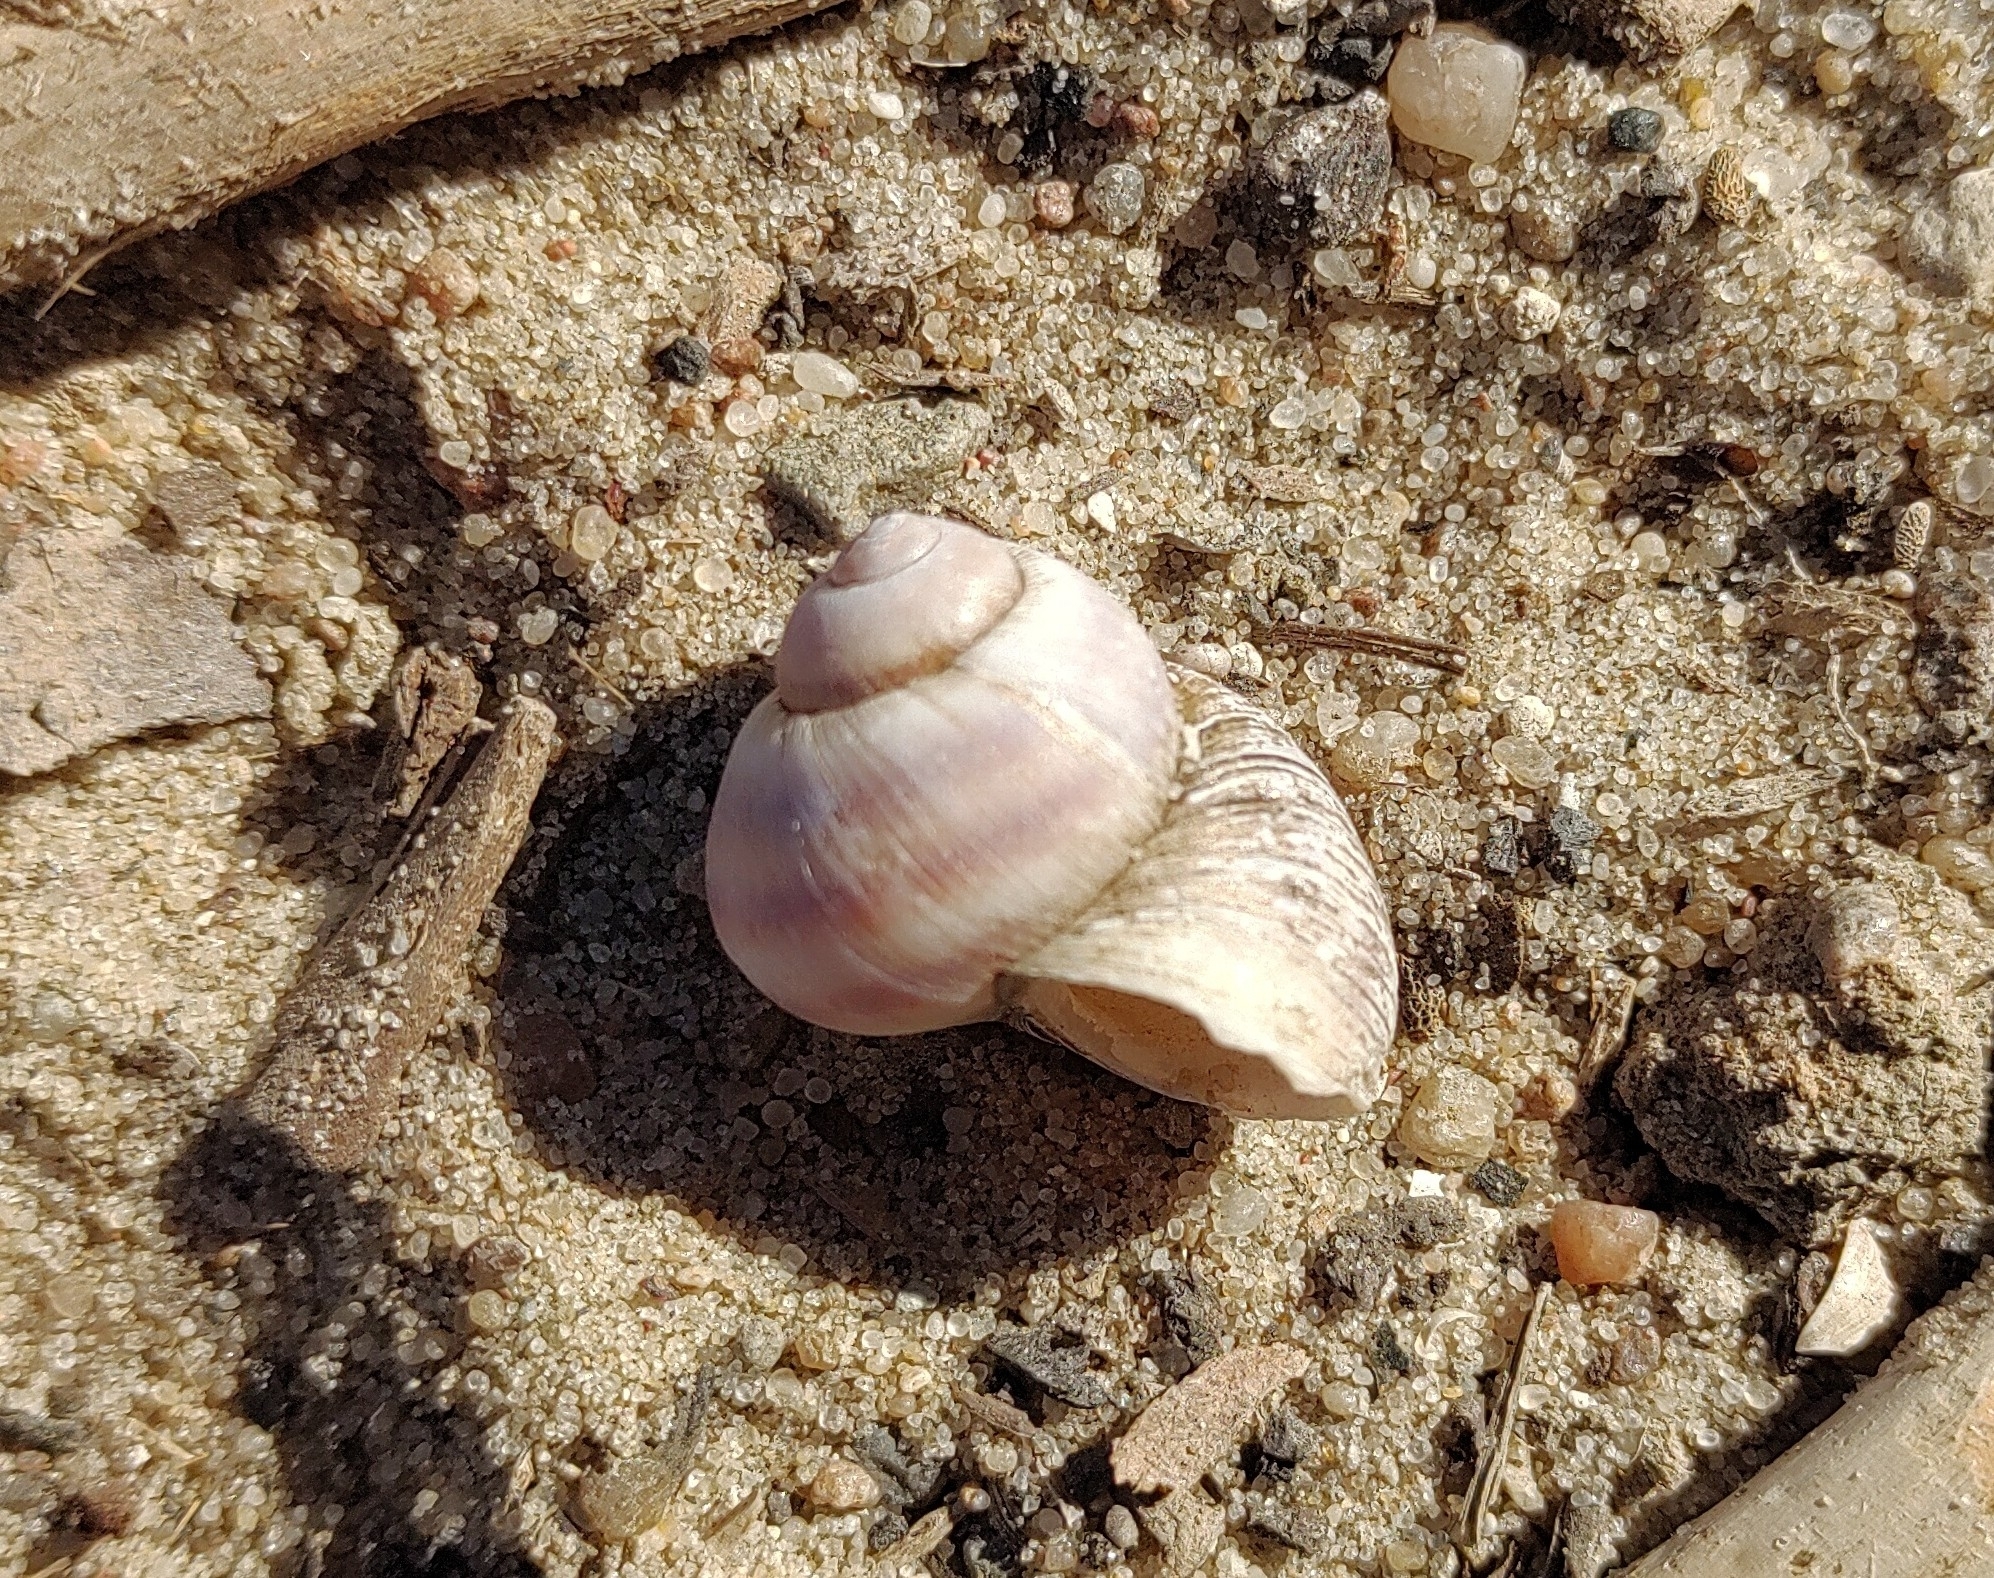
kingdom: Animalia
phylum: Mollusca
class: Gastropoda
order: Architaenioglossa
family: Viviparidae
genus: Viviparus
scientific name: Viviparus viviparus
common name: River snail
